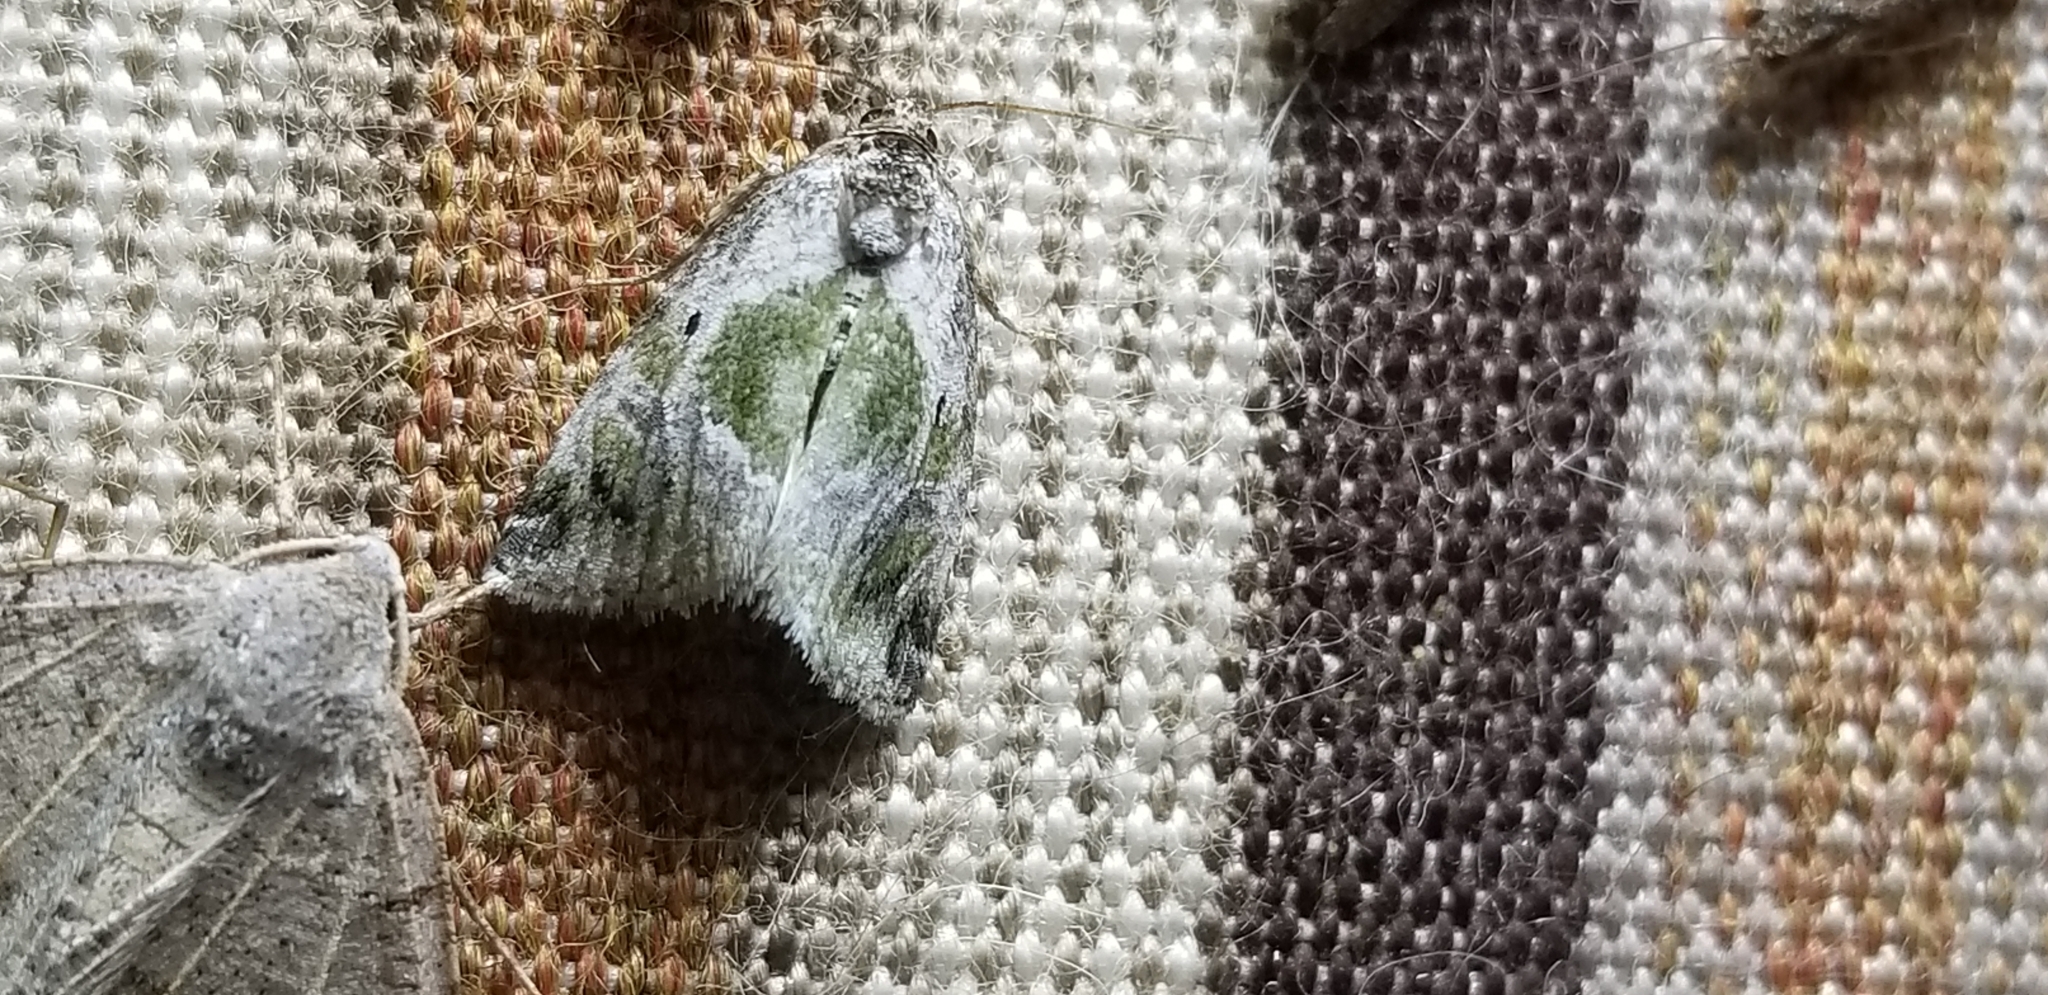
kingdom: Animalia
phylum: Arthropoda
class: Insecta
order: Lepidoptera
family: Noctuidae
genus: Maliattha
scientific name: Maliattha synochitis
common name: Black-dotted glyph
